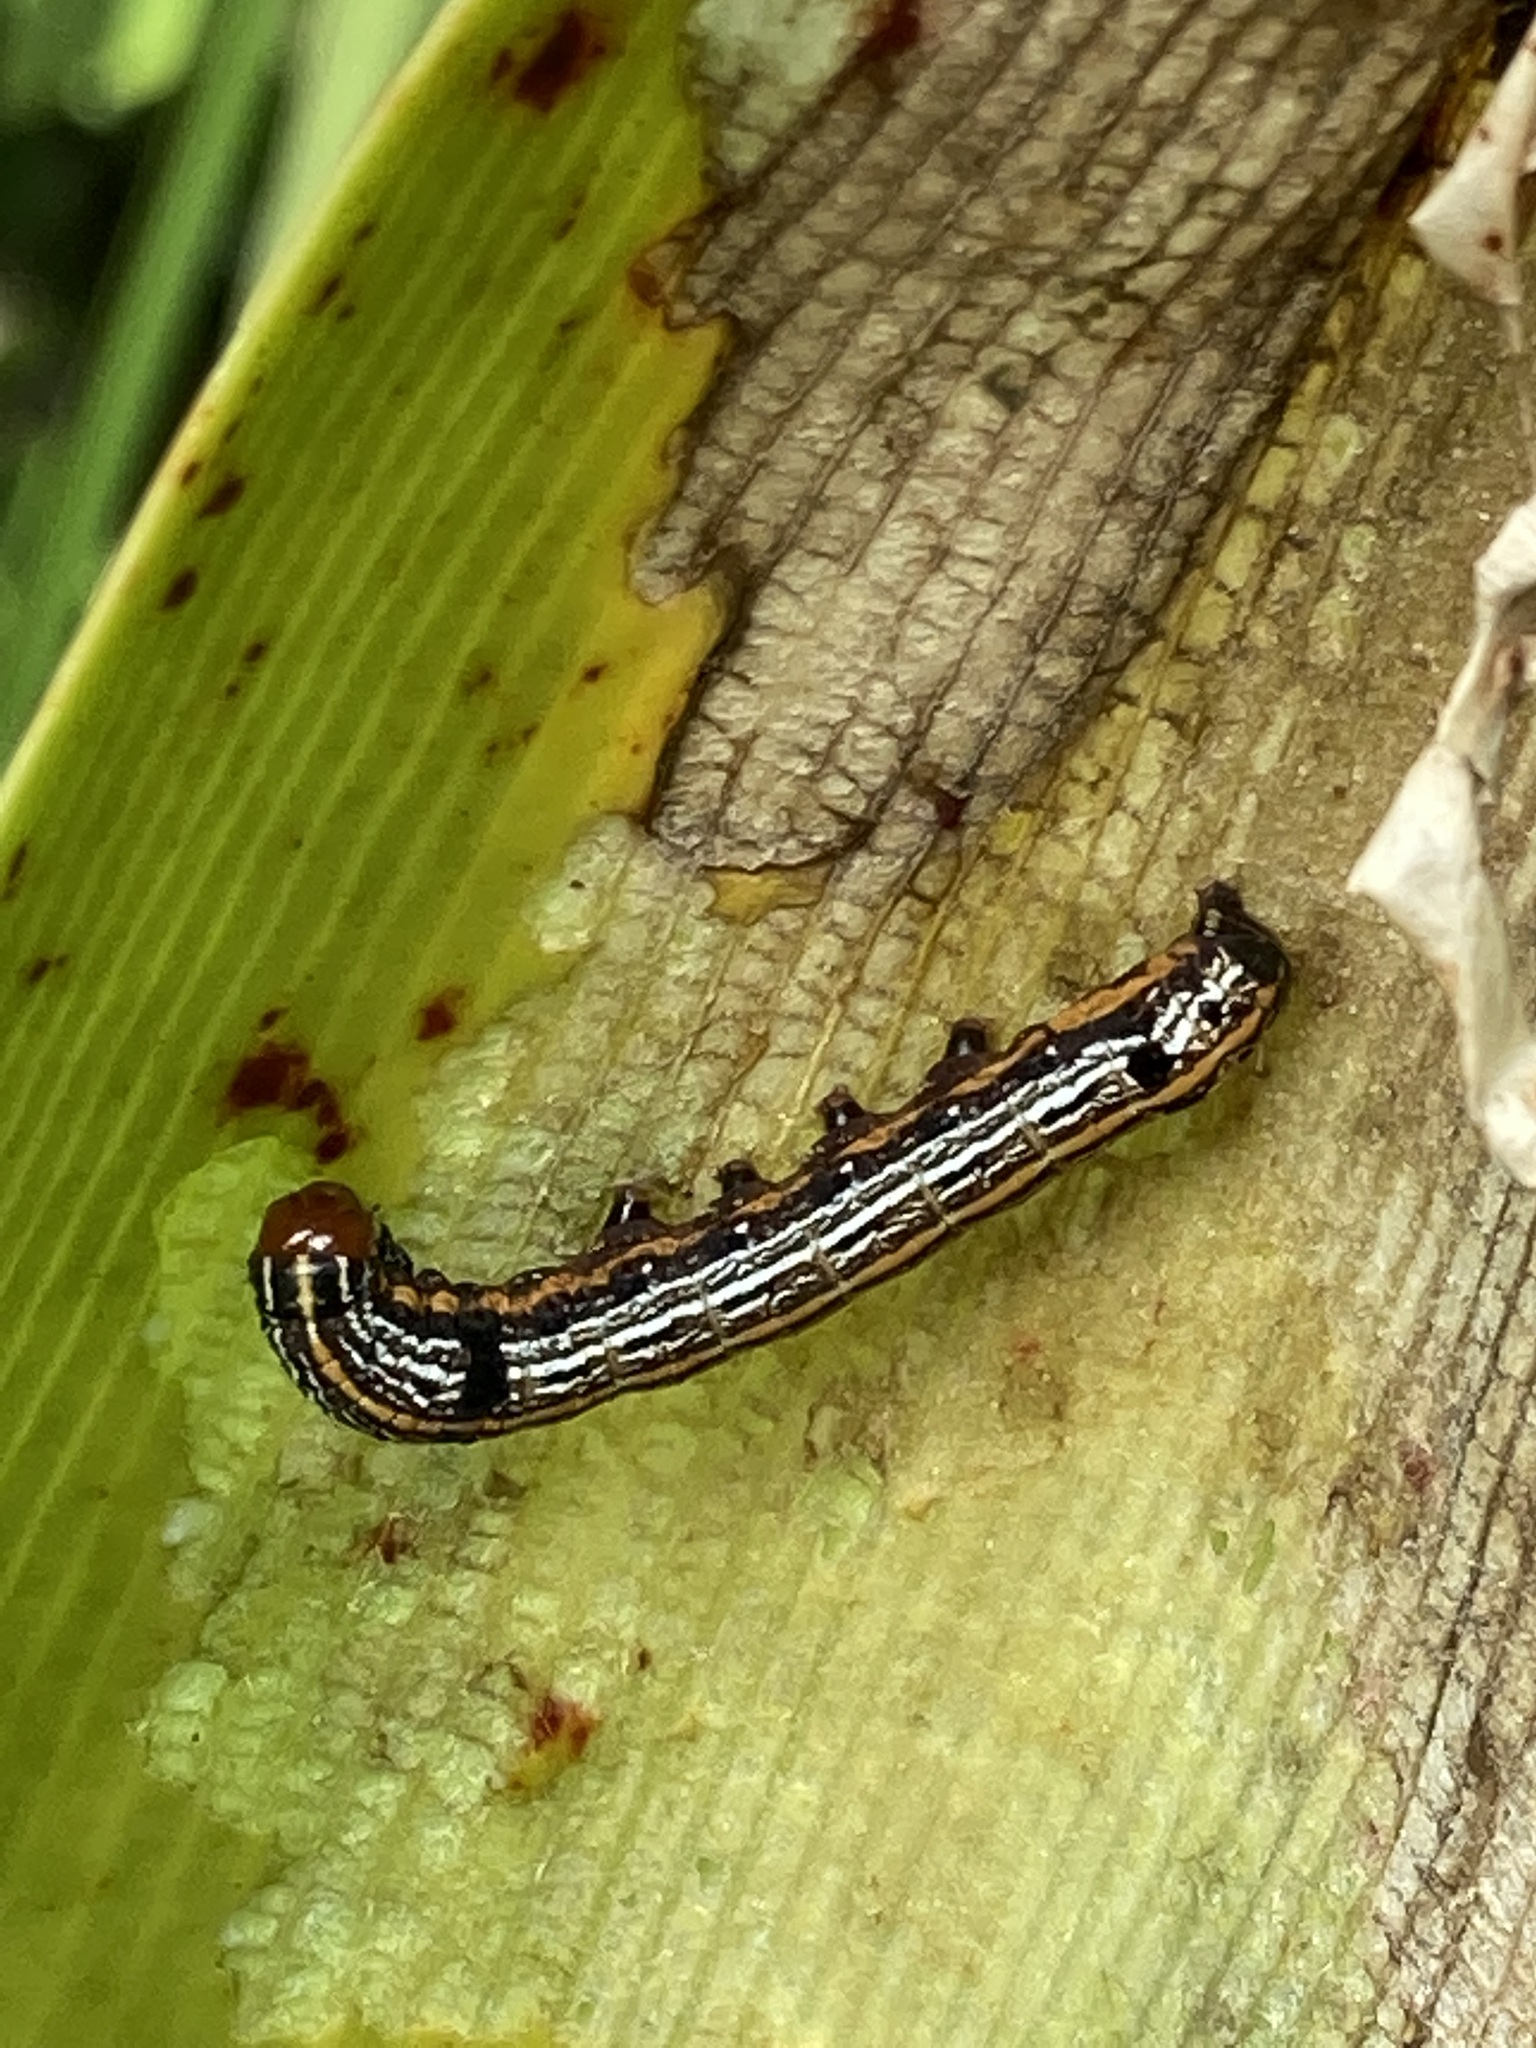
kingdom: Animalia
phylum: Arthropoda
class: Insecta
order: Lepidoptera
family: Noctuidae
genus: Spodoptera
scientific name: Spodoptera picta
